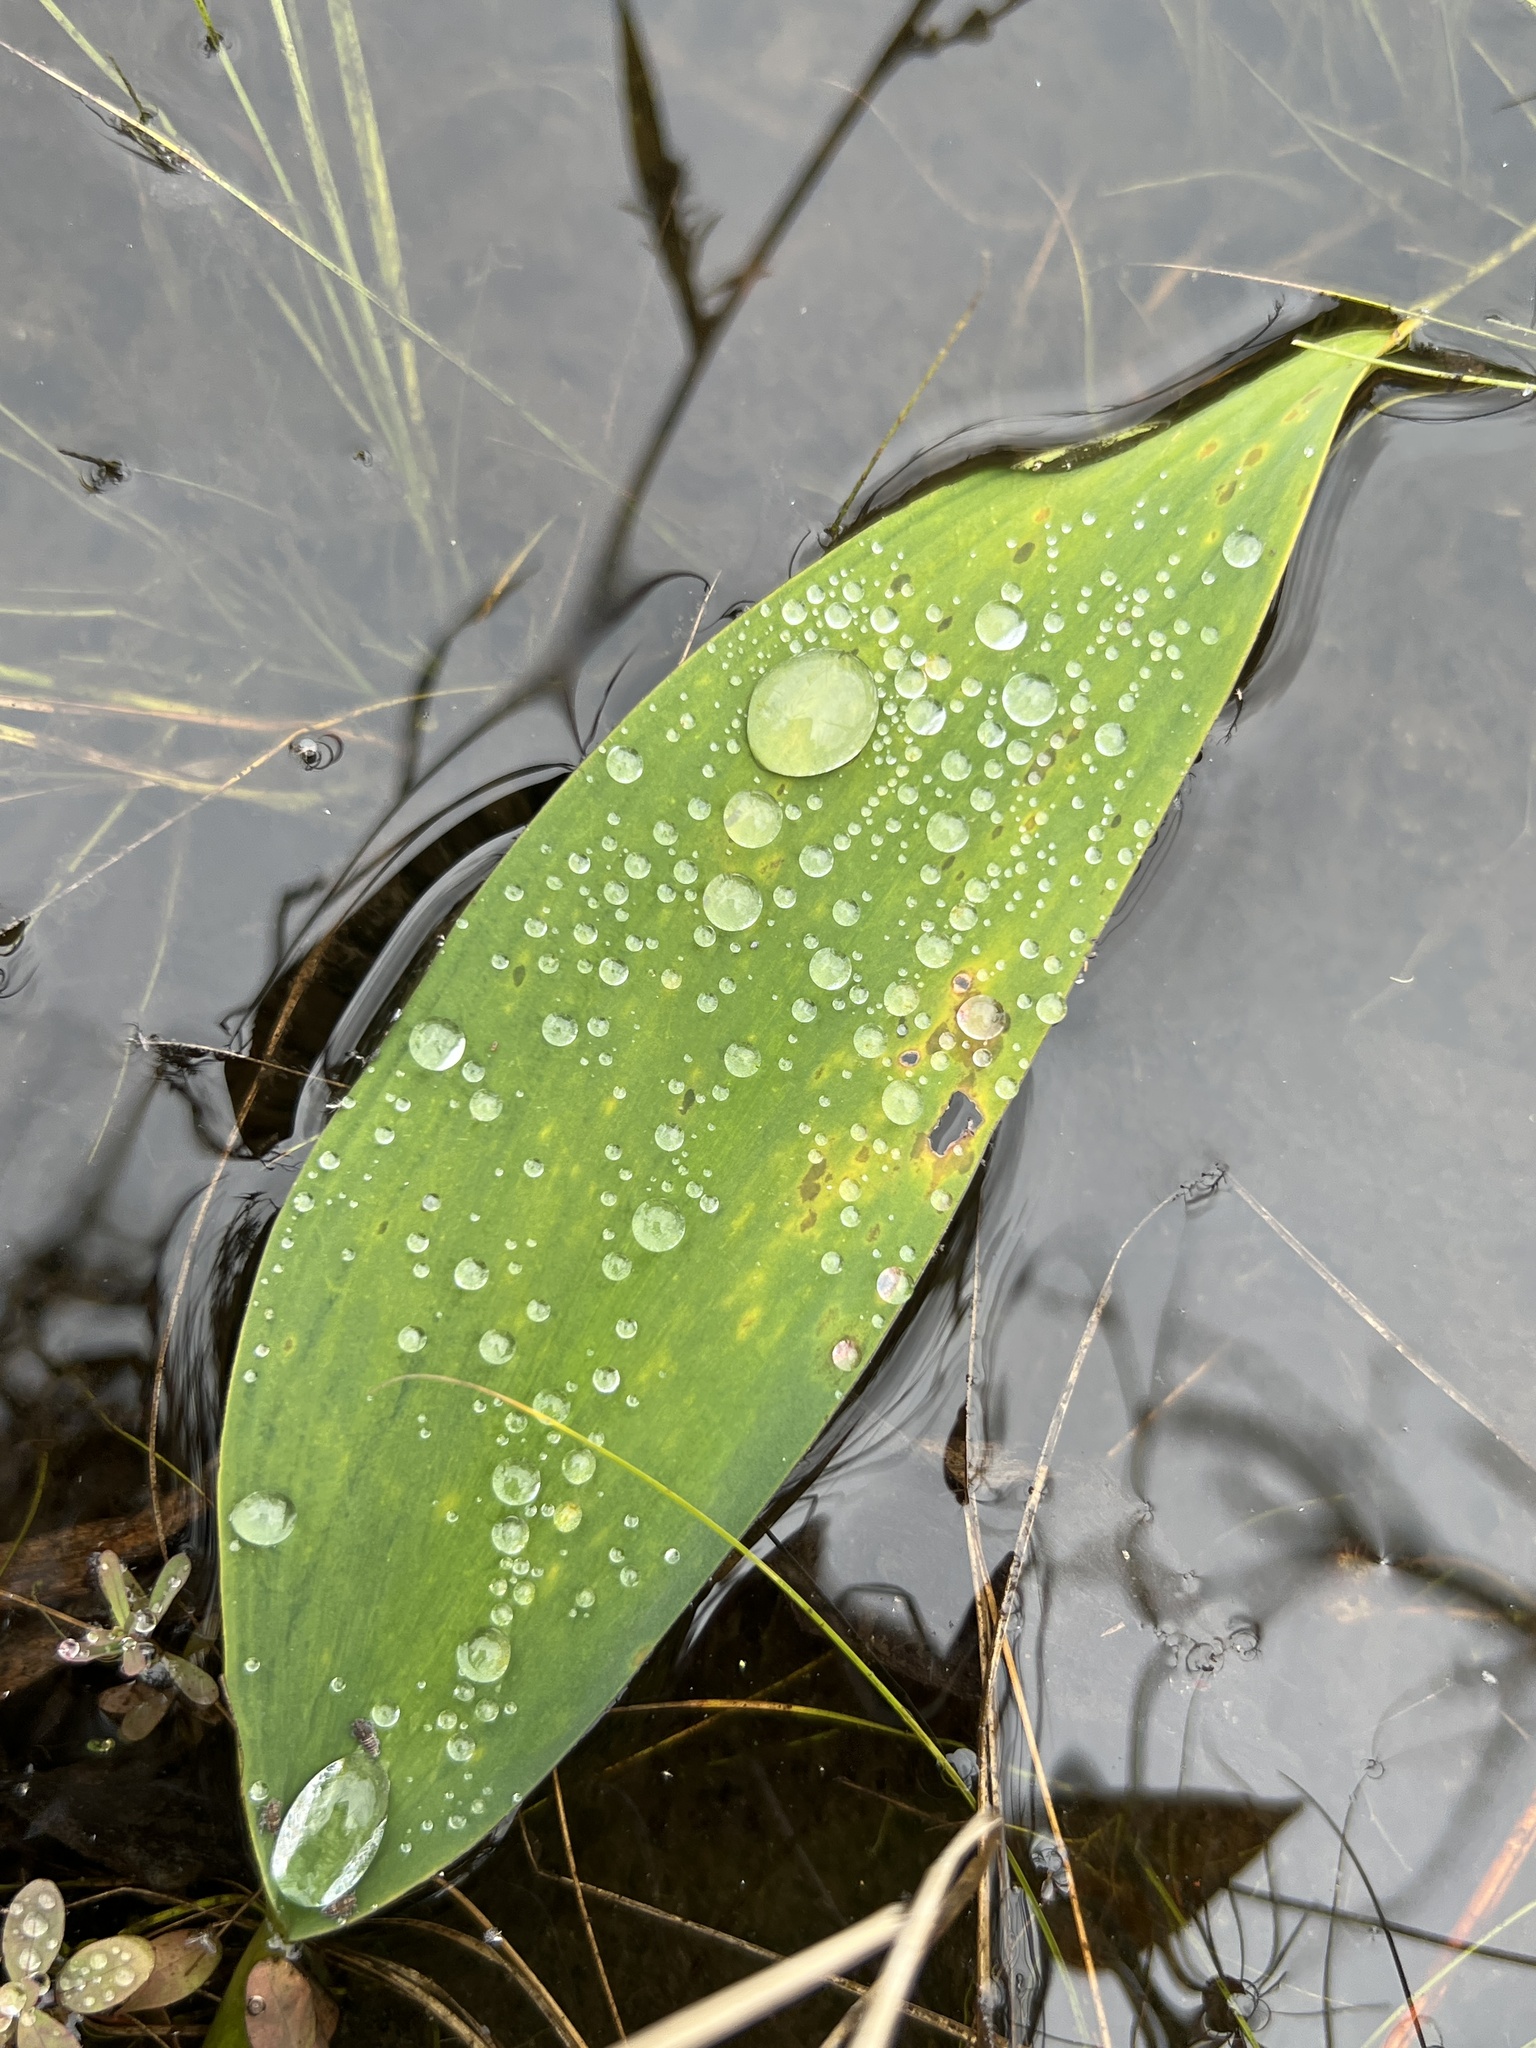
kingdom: Plantae
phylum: Tracheophyta
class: Liliopsida
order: Alismatales
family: Araceae
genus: Orontium
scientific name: Orontium aquaticum
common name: Golden-club
